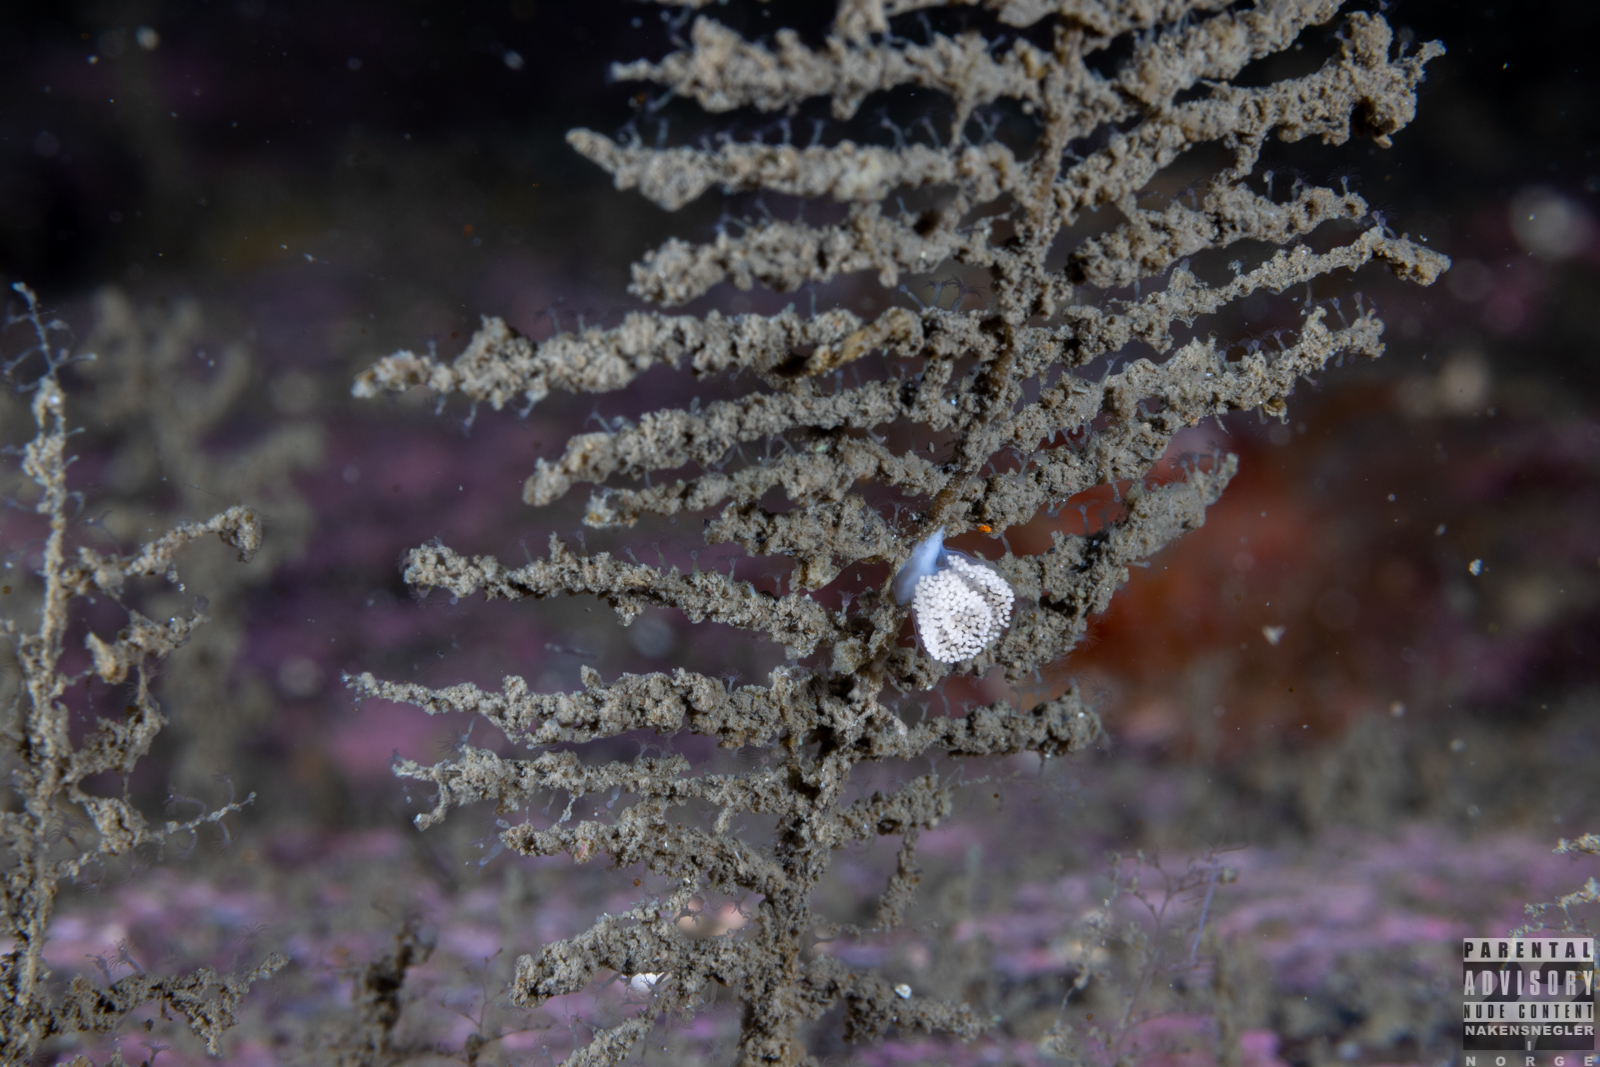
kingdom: Animalia
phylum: Mollusca
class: Gastropoda
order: Nudibranchia
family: Eubranchidae
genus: Eubranchus
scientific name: Eubranchus tricolor
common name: Painted balloon aeolis
